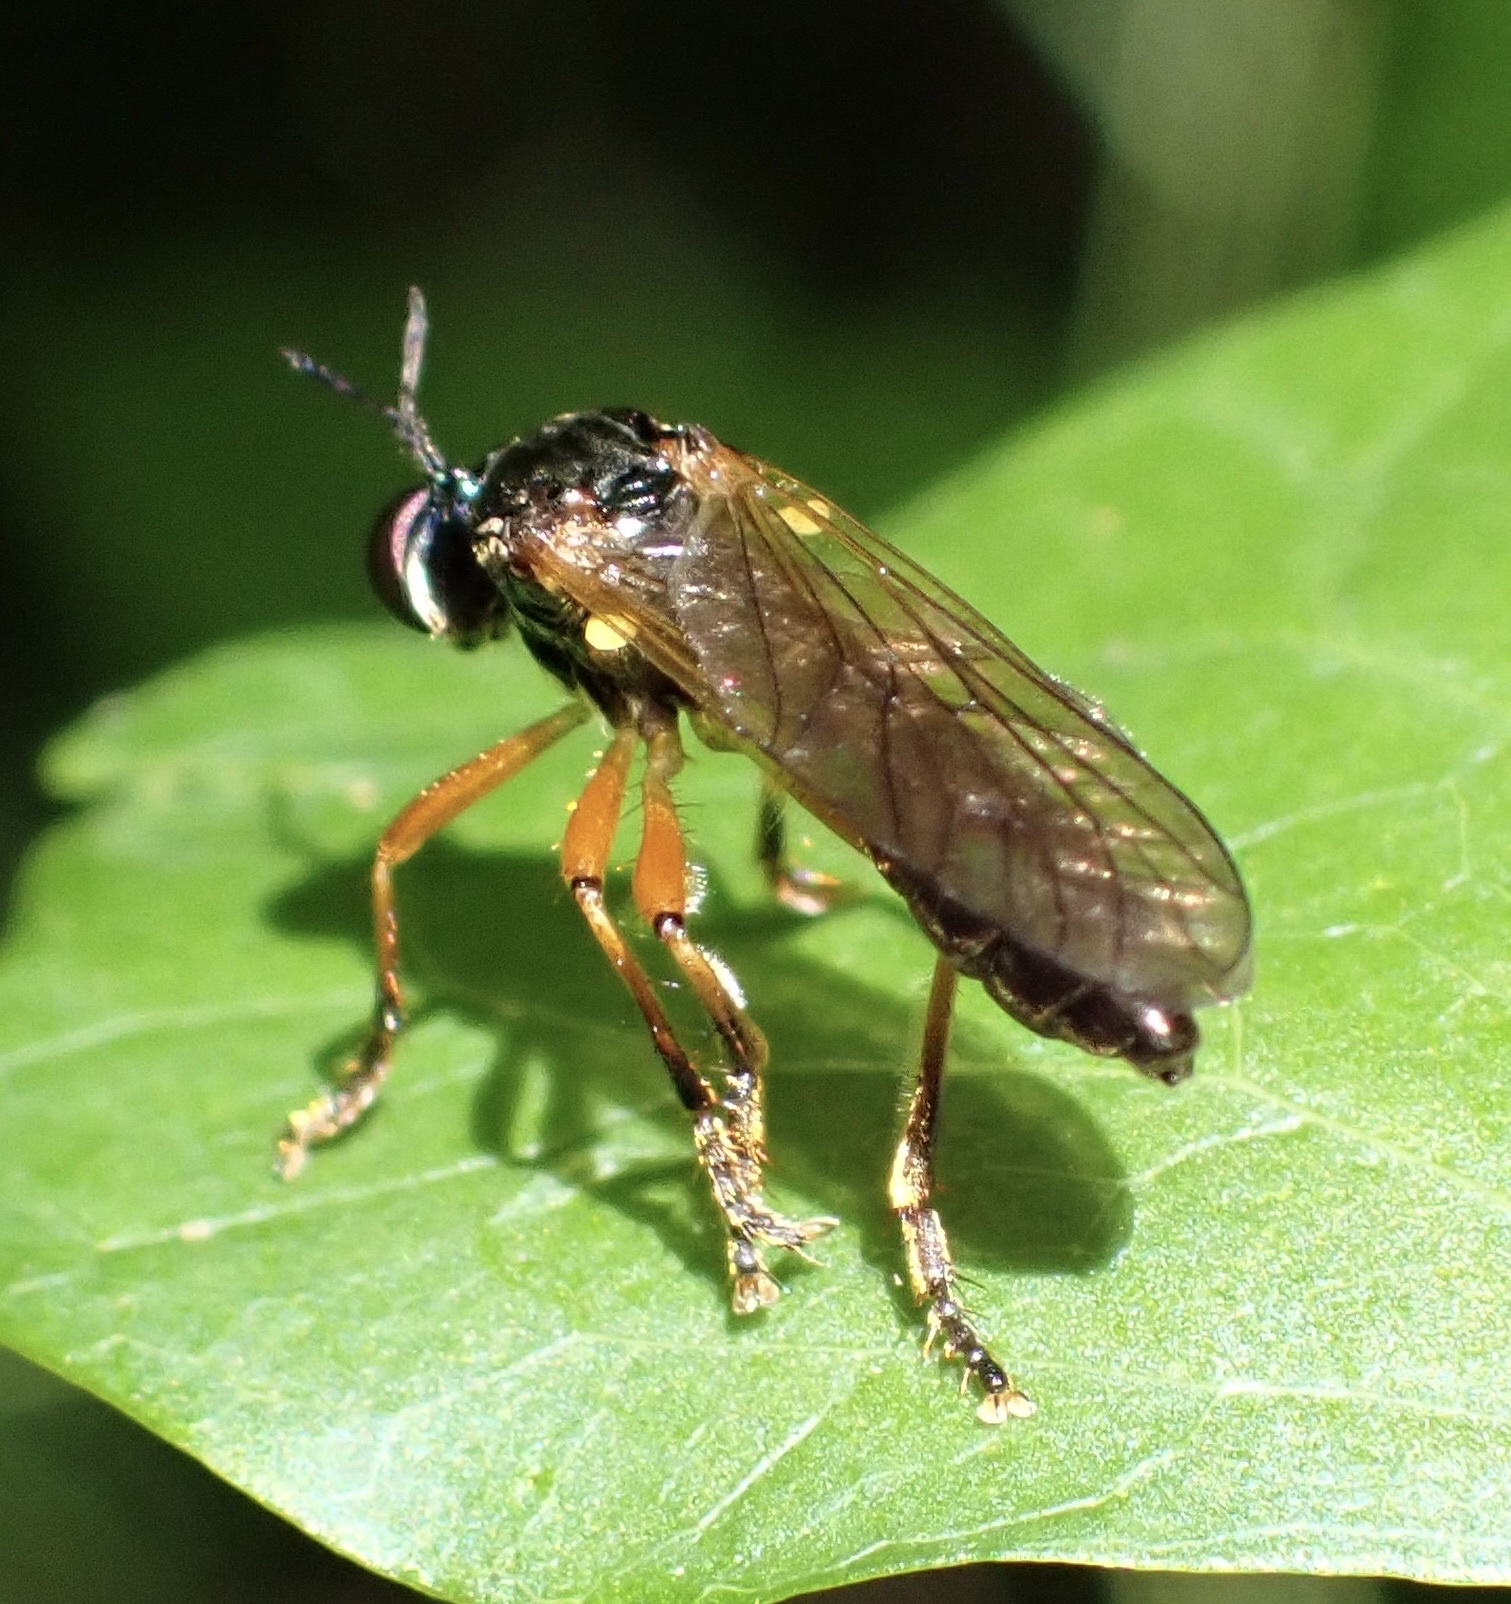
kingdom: Animalia
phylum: Arthropoda
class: Insecta
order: Diptera
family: Asilidae
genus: Dioctria
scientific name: Dioctria cothurnata
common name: Scarce red-legged robberfly
